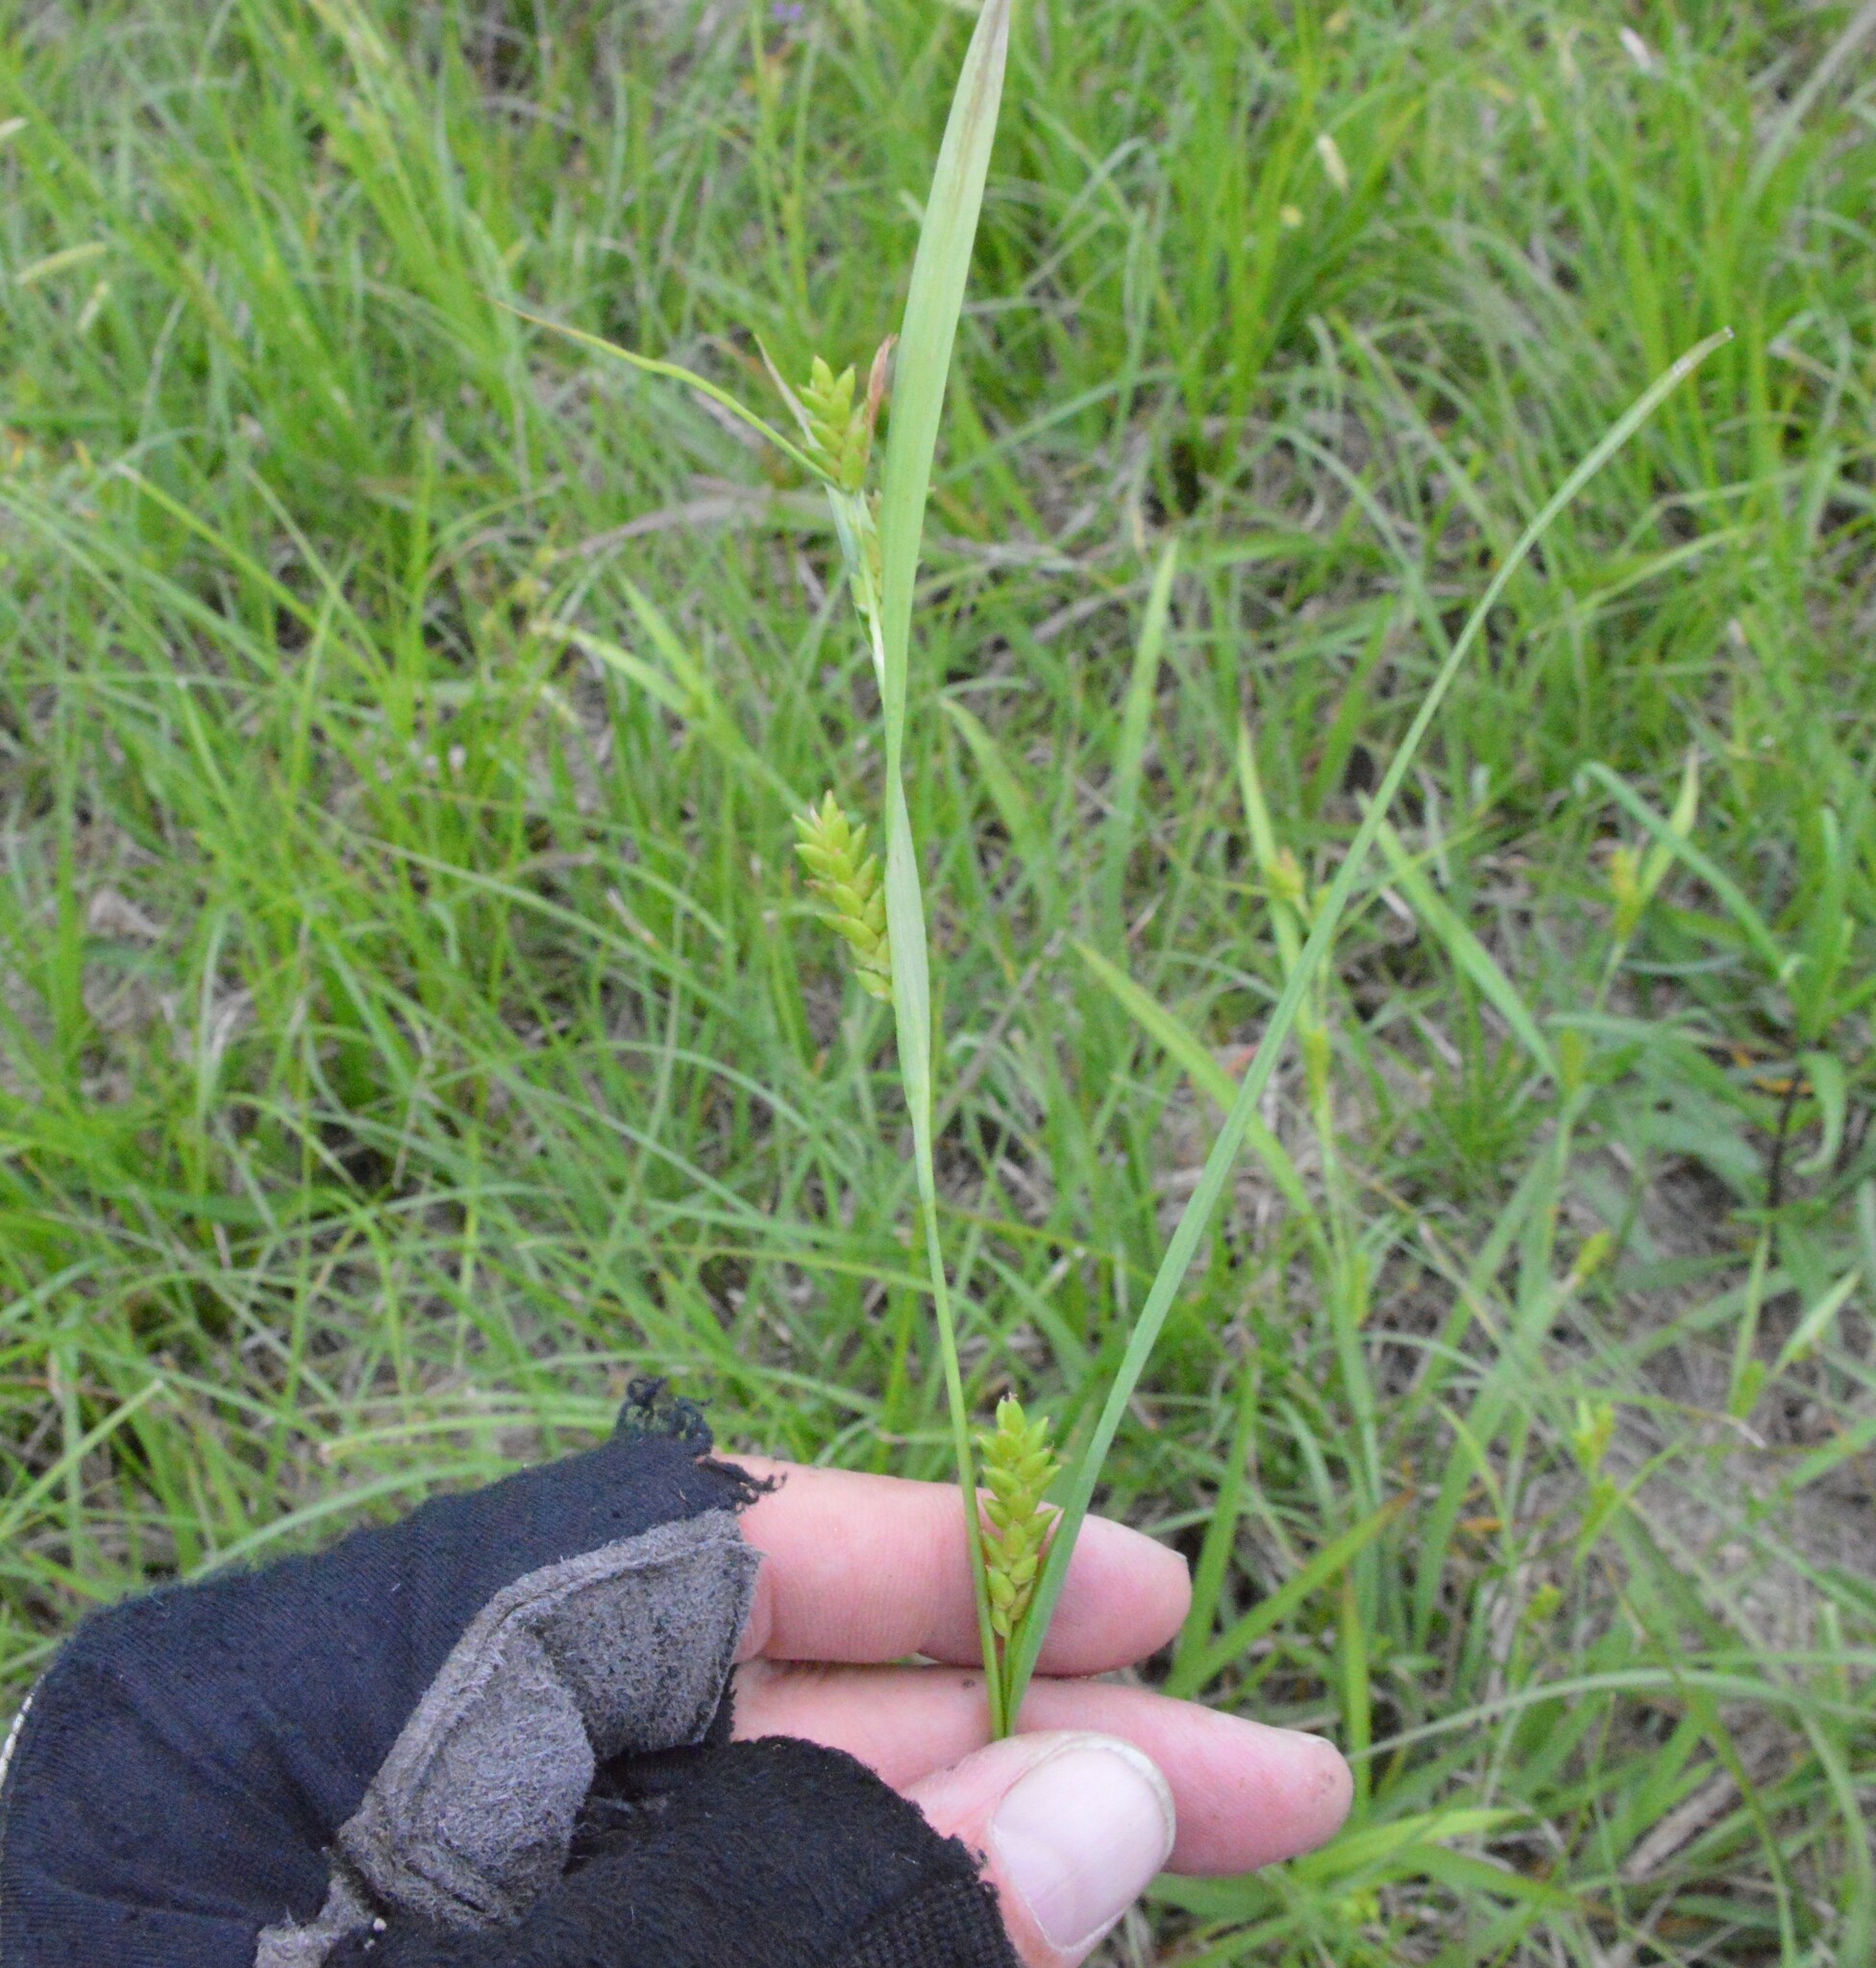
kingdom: Plantae
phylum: Tracheophyta
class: Liliopsida
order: Poales
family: Cyperaceae
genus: Carex
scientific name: Carex flaccosperma
